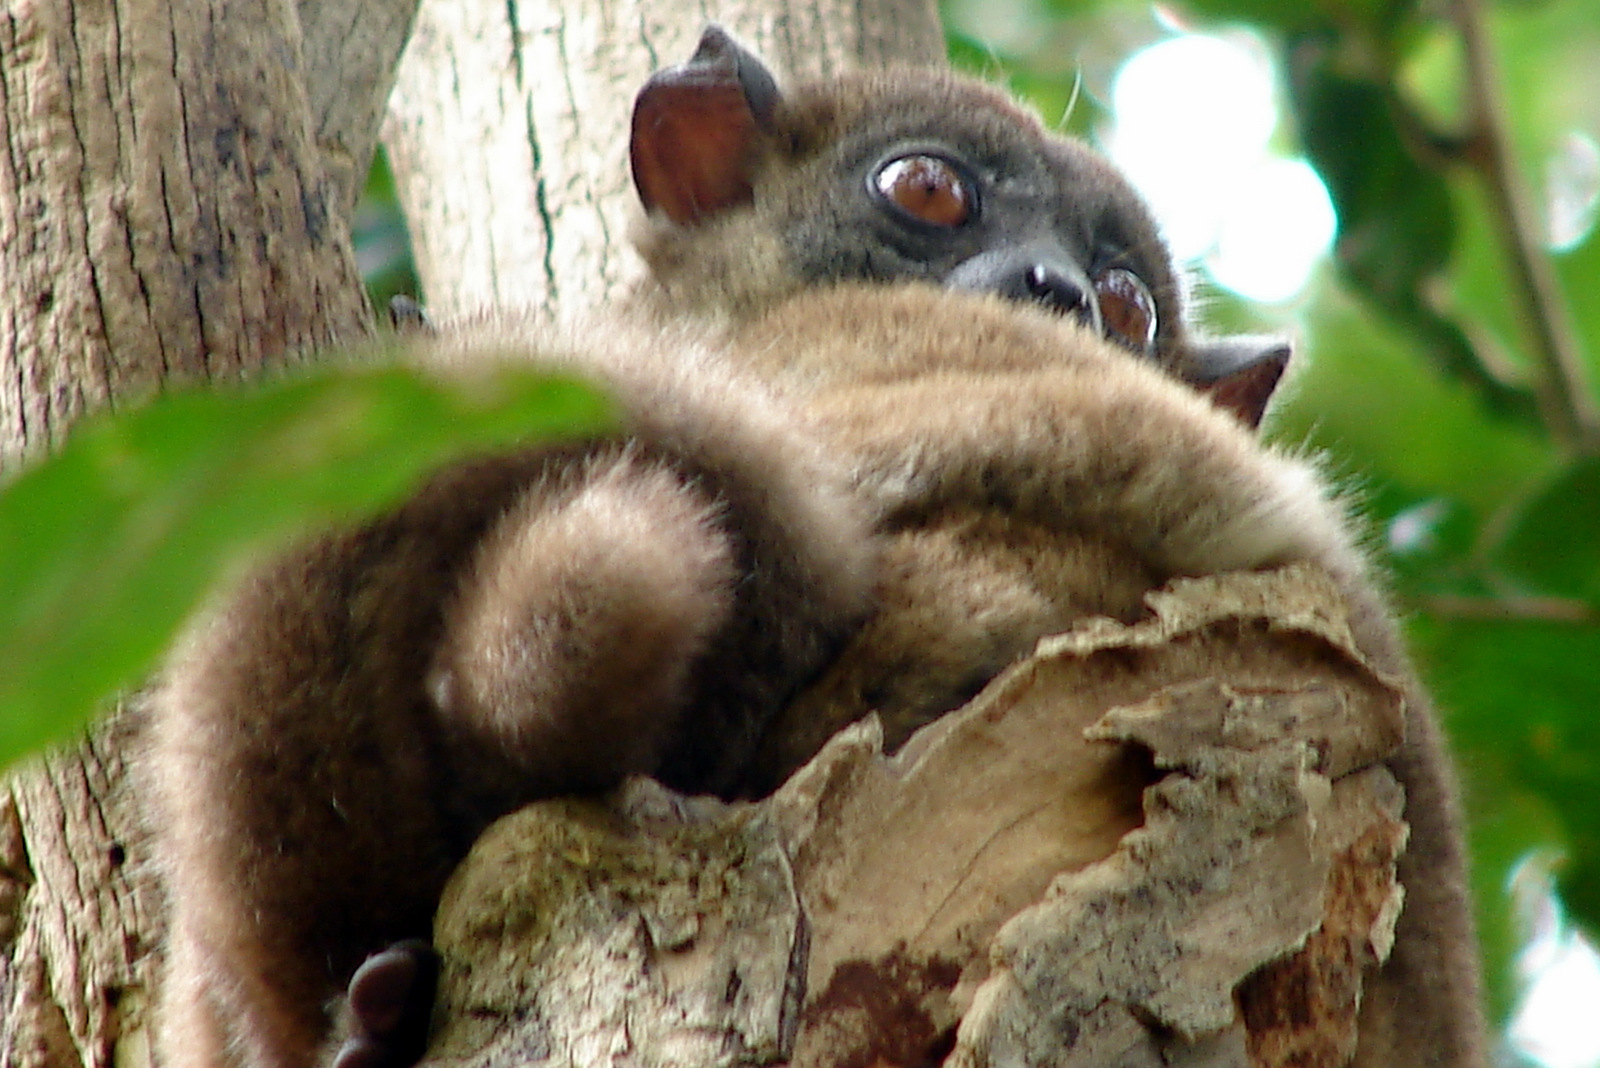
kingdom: Animalia
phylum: Chordata
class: Mammalia
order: Primates
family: Lepilemuridae
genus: Lepilemur
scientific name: Lepilemur ankaranensis
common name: Ankarana sportive lemur
